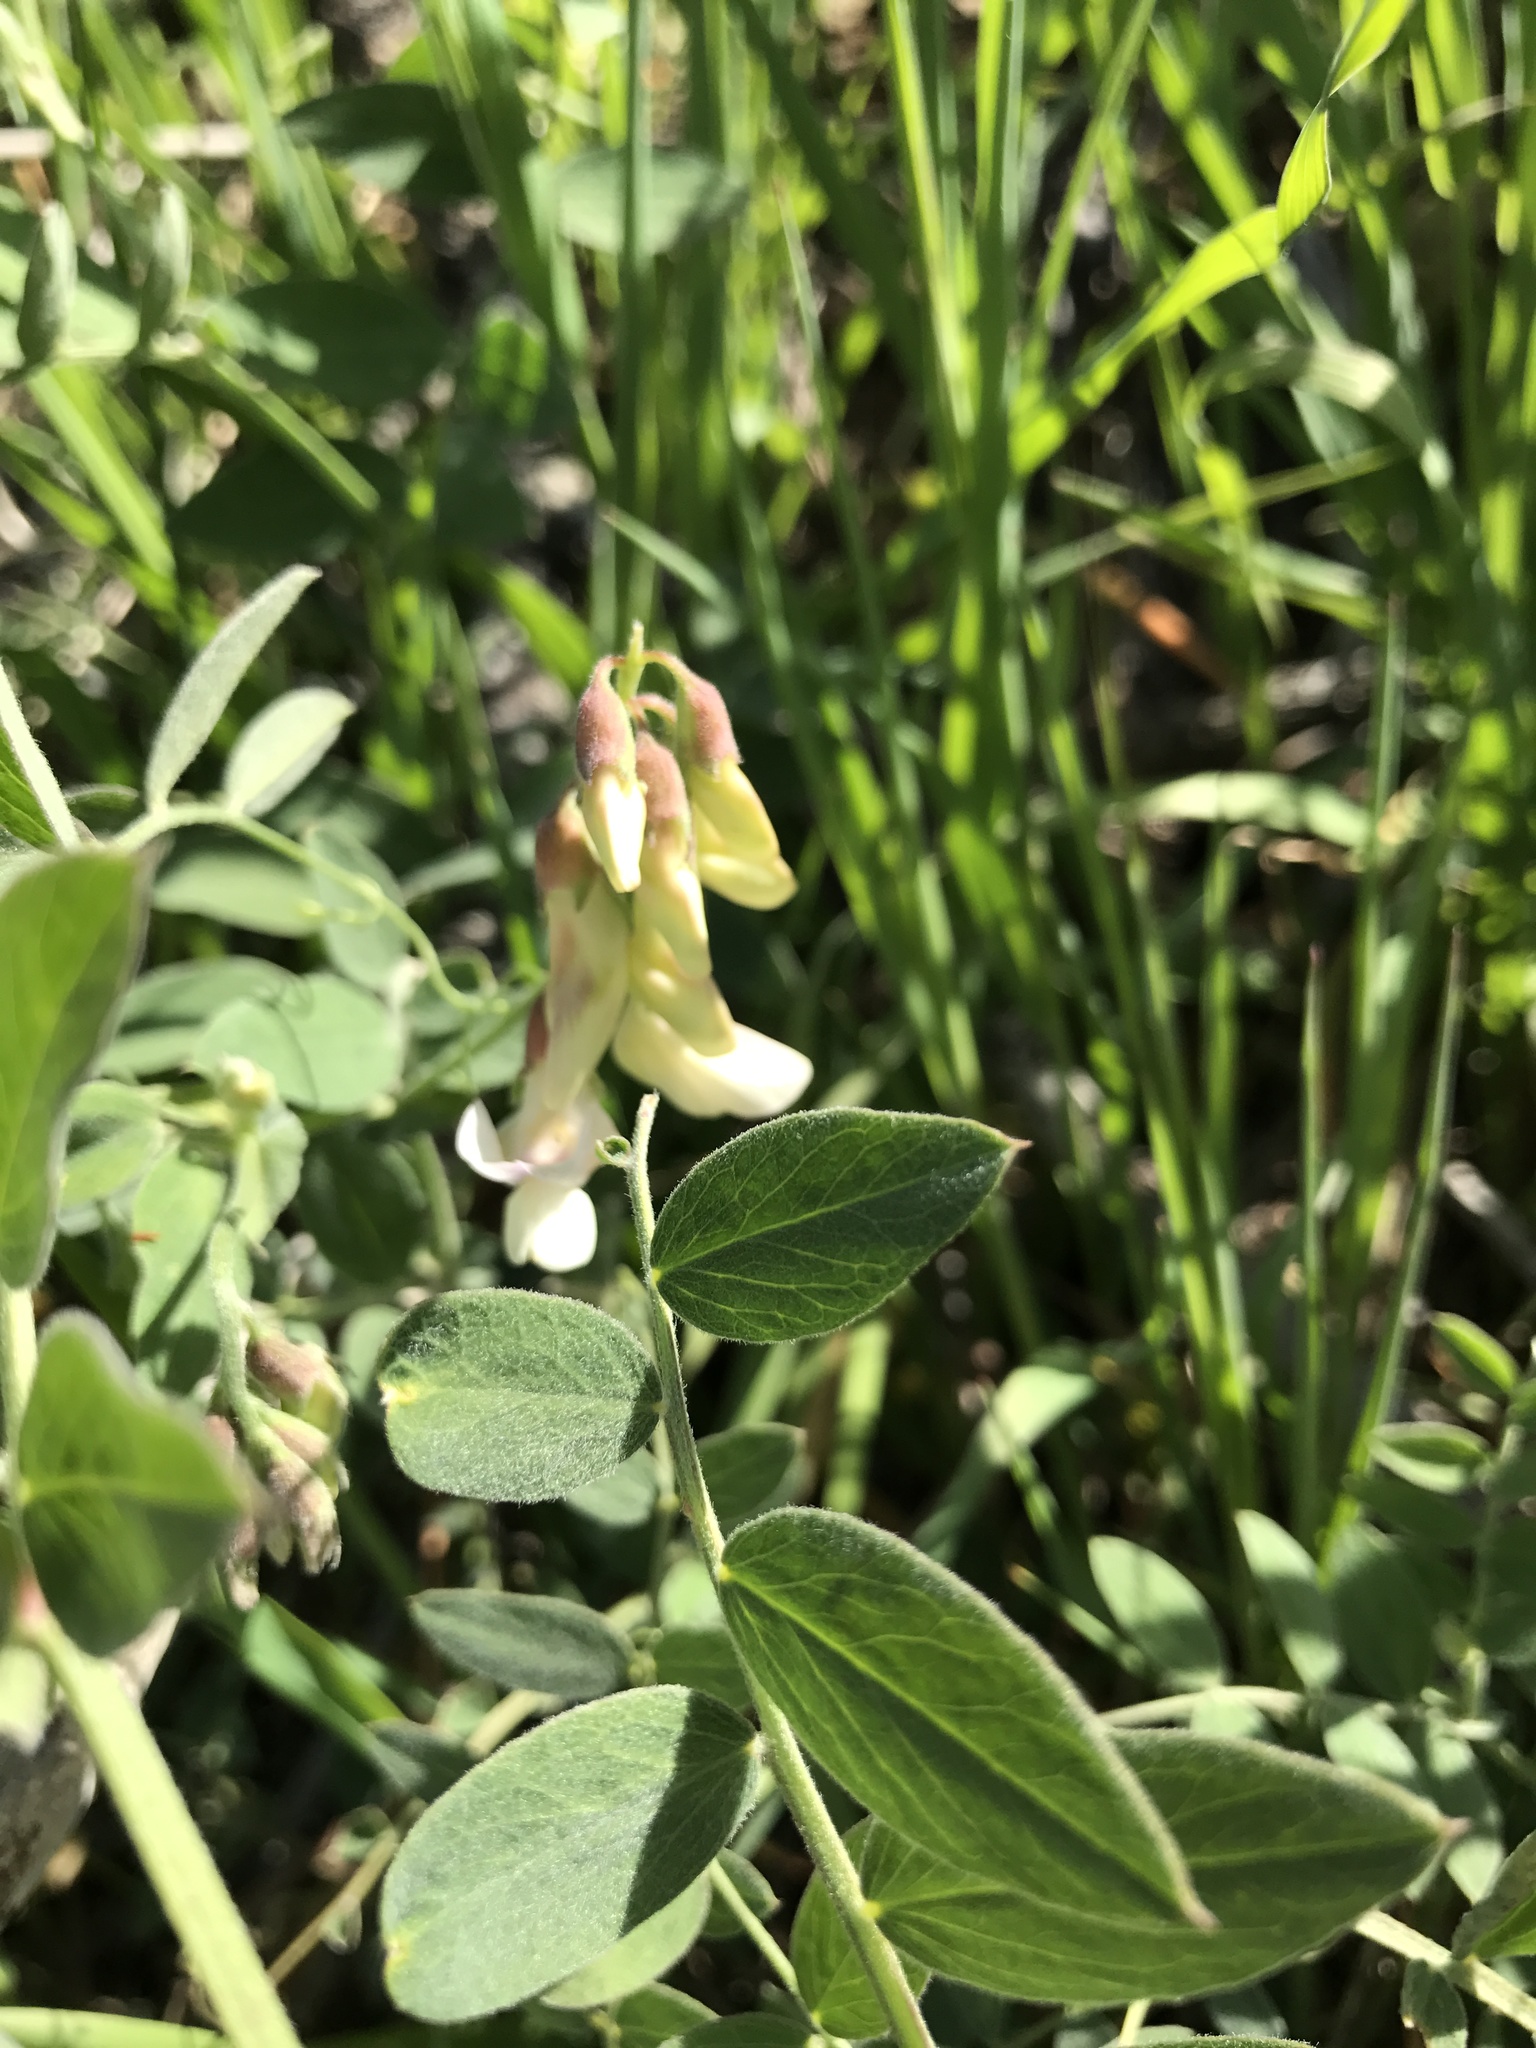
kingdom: Plantae
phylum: Tracheophyta
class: Magnoliopsida
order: Fabales
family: Fabaceae
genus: Lathyrus
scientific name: Lathyrus vestitus
